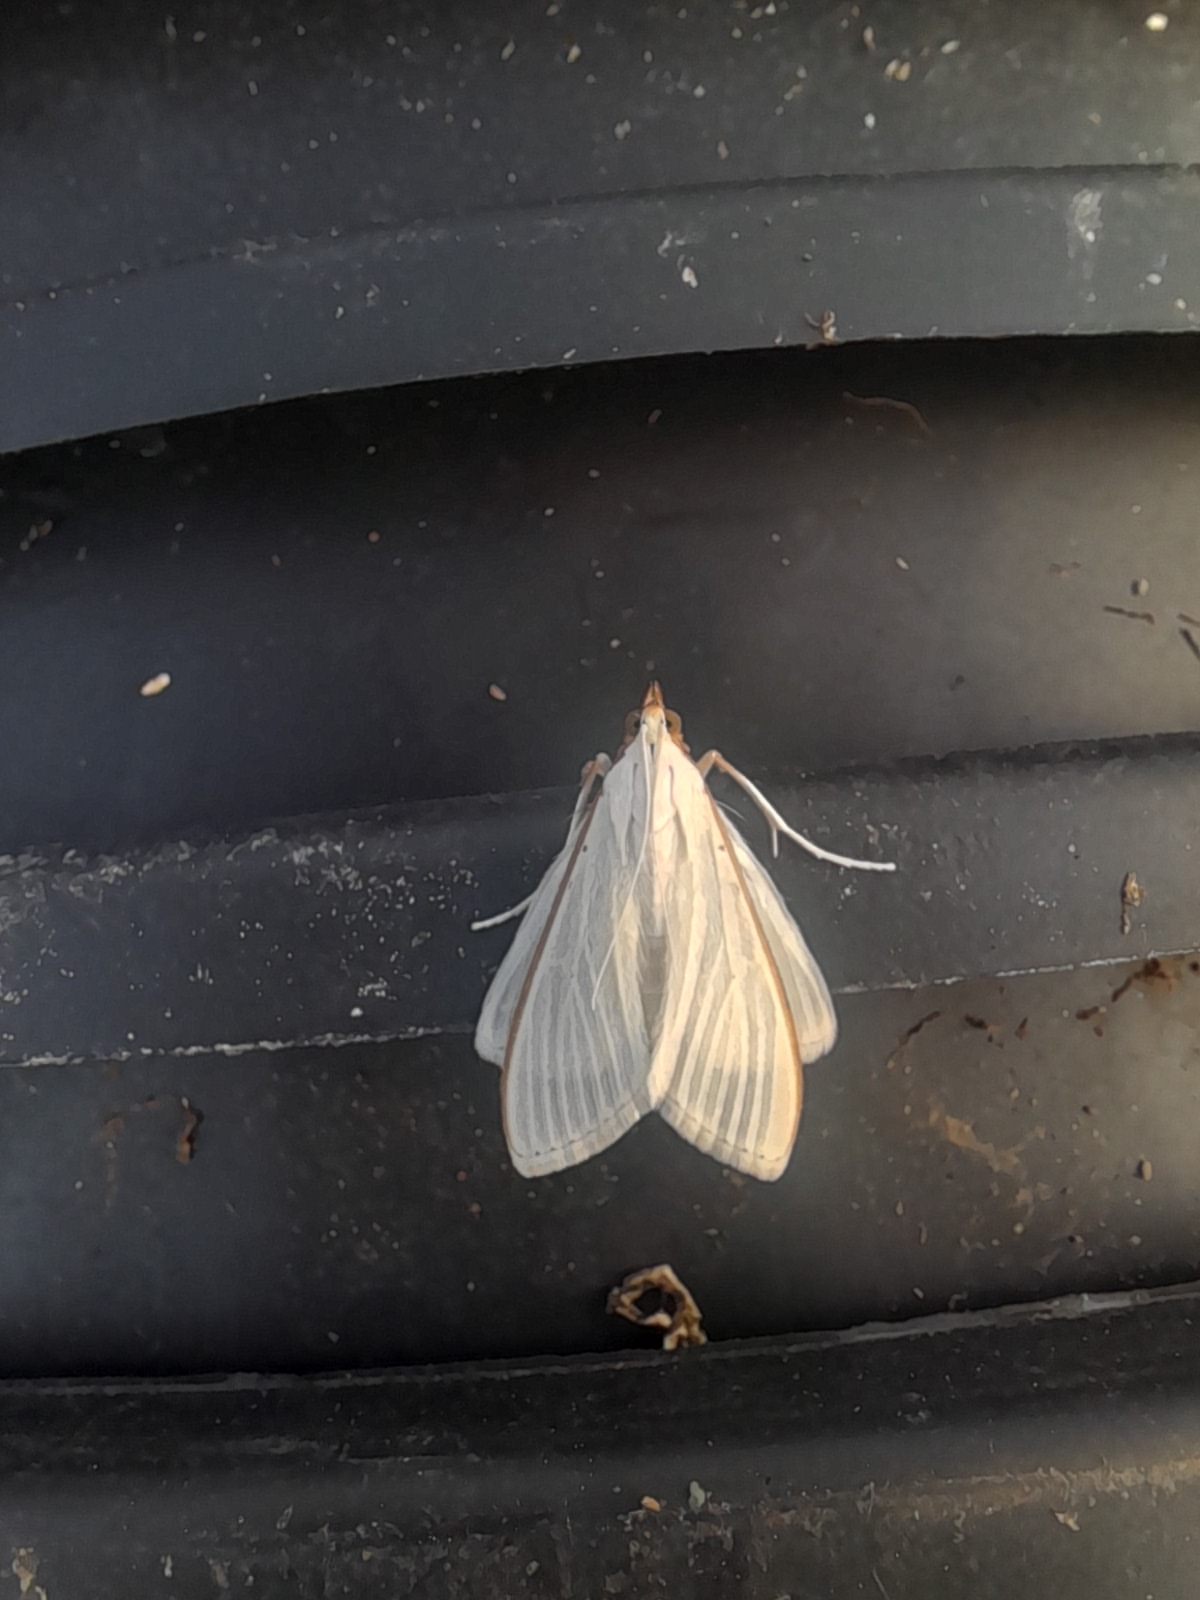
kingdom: Animalia
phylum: Arthropoda
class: Insecta
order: Lepidoptera
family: Crambidae
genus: Palpita
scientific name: Palpita vitrealis
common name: Olive-tree pearl
